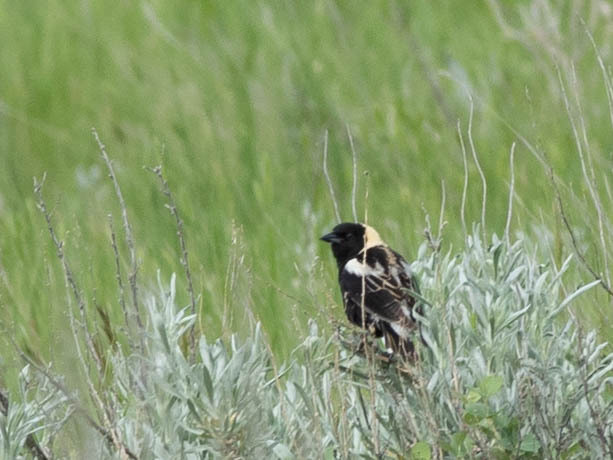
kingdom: Animalia
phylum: Chordata
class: Aves
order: Passeriformes
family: Icteridae
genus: Dolichonyx
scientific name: Dolichonyx oryzivorus
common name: Bobolink
